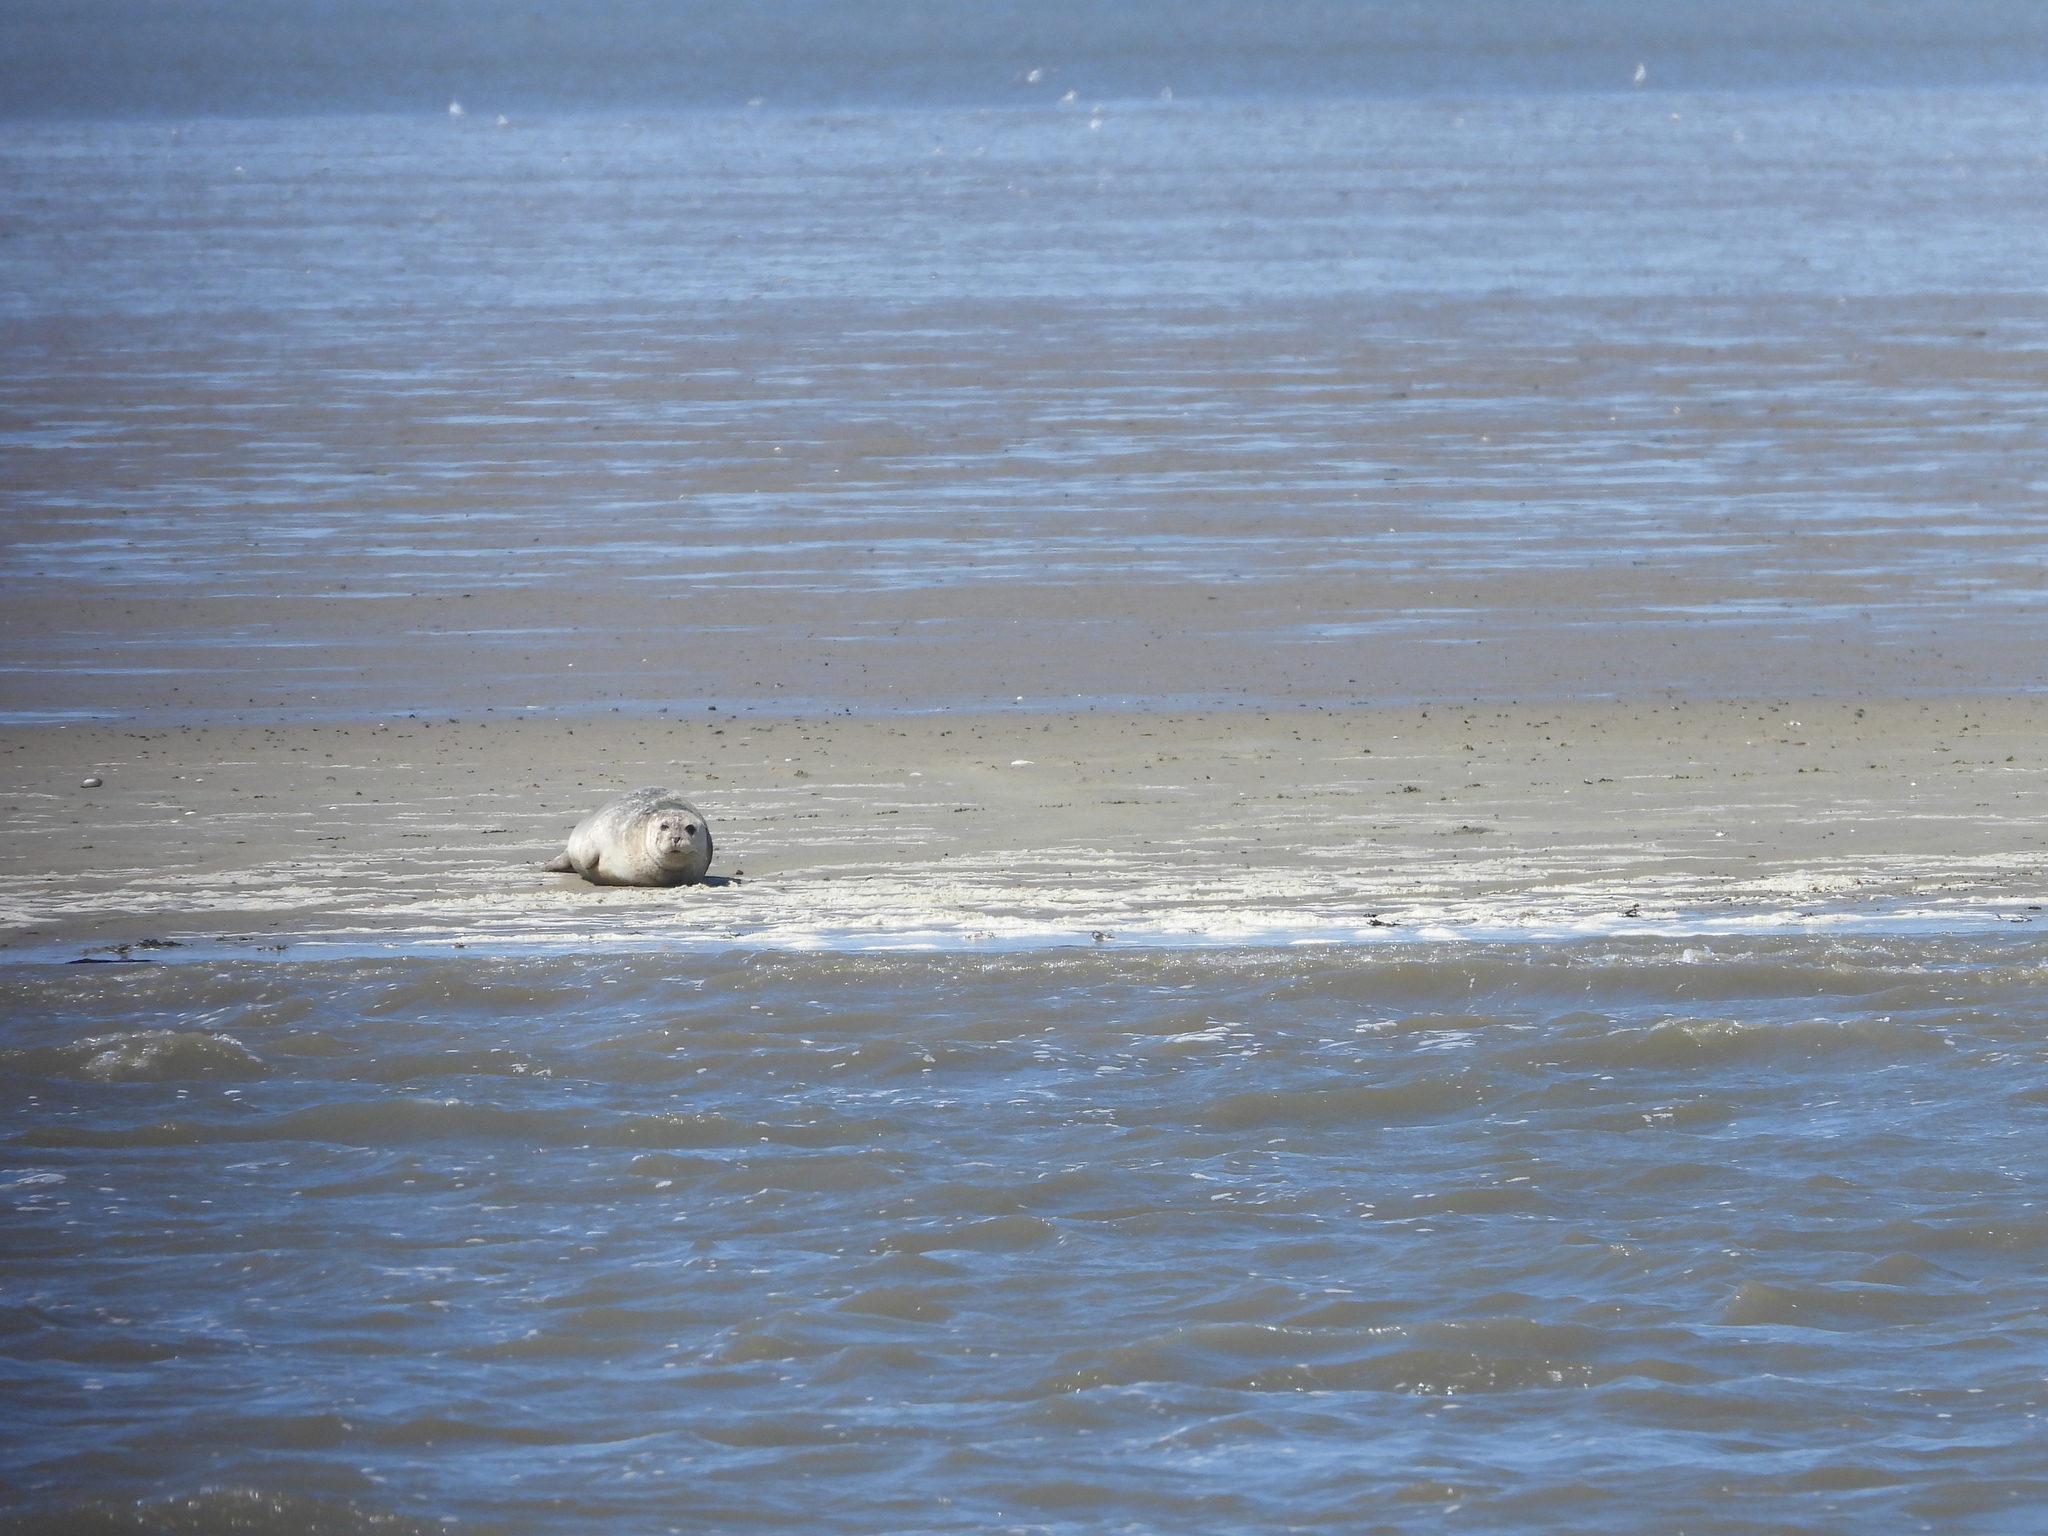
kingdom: Animalia
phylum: Chordata
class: Mammalia
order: Carnivora
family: Phocidae
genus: Phoca
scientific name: Phoca vitulina
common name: Harbor seal
